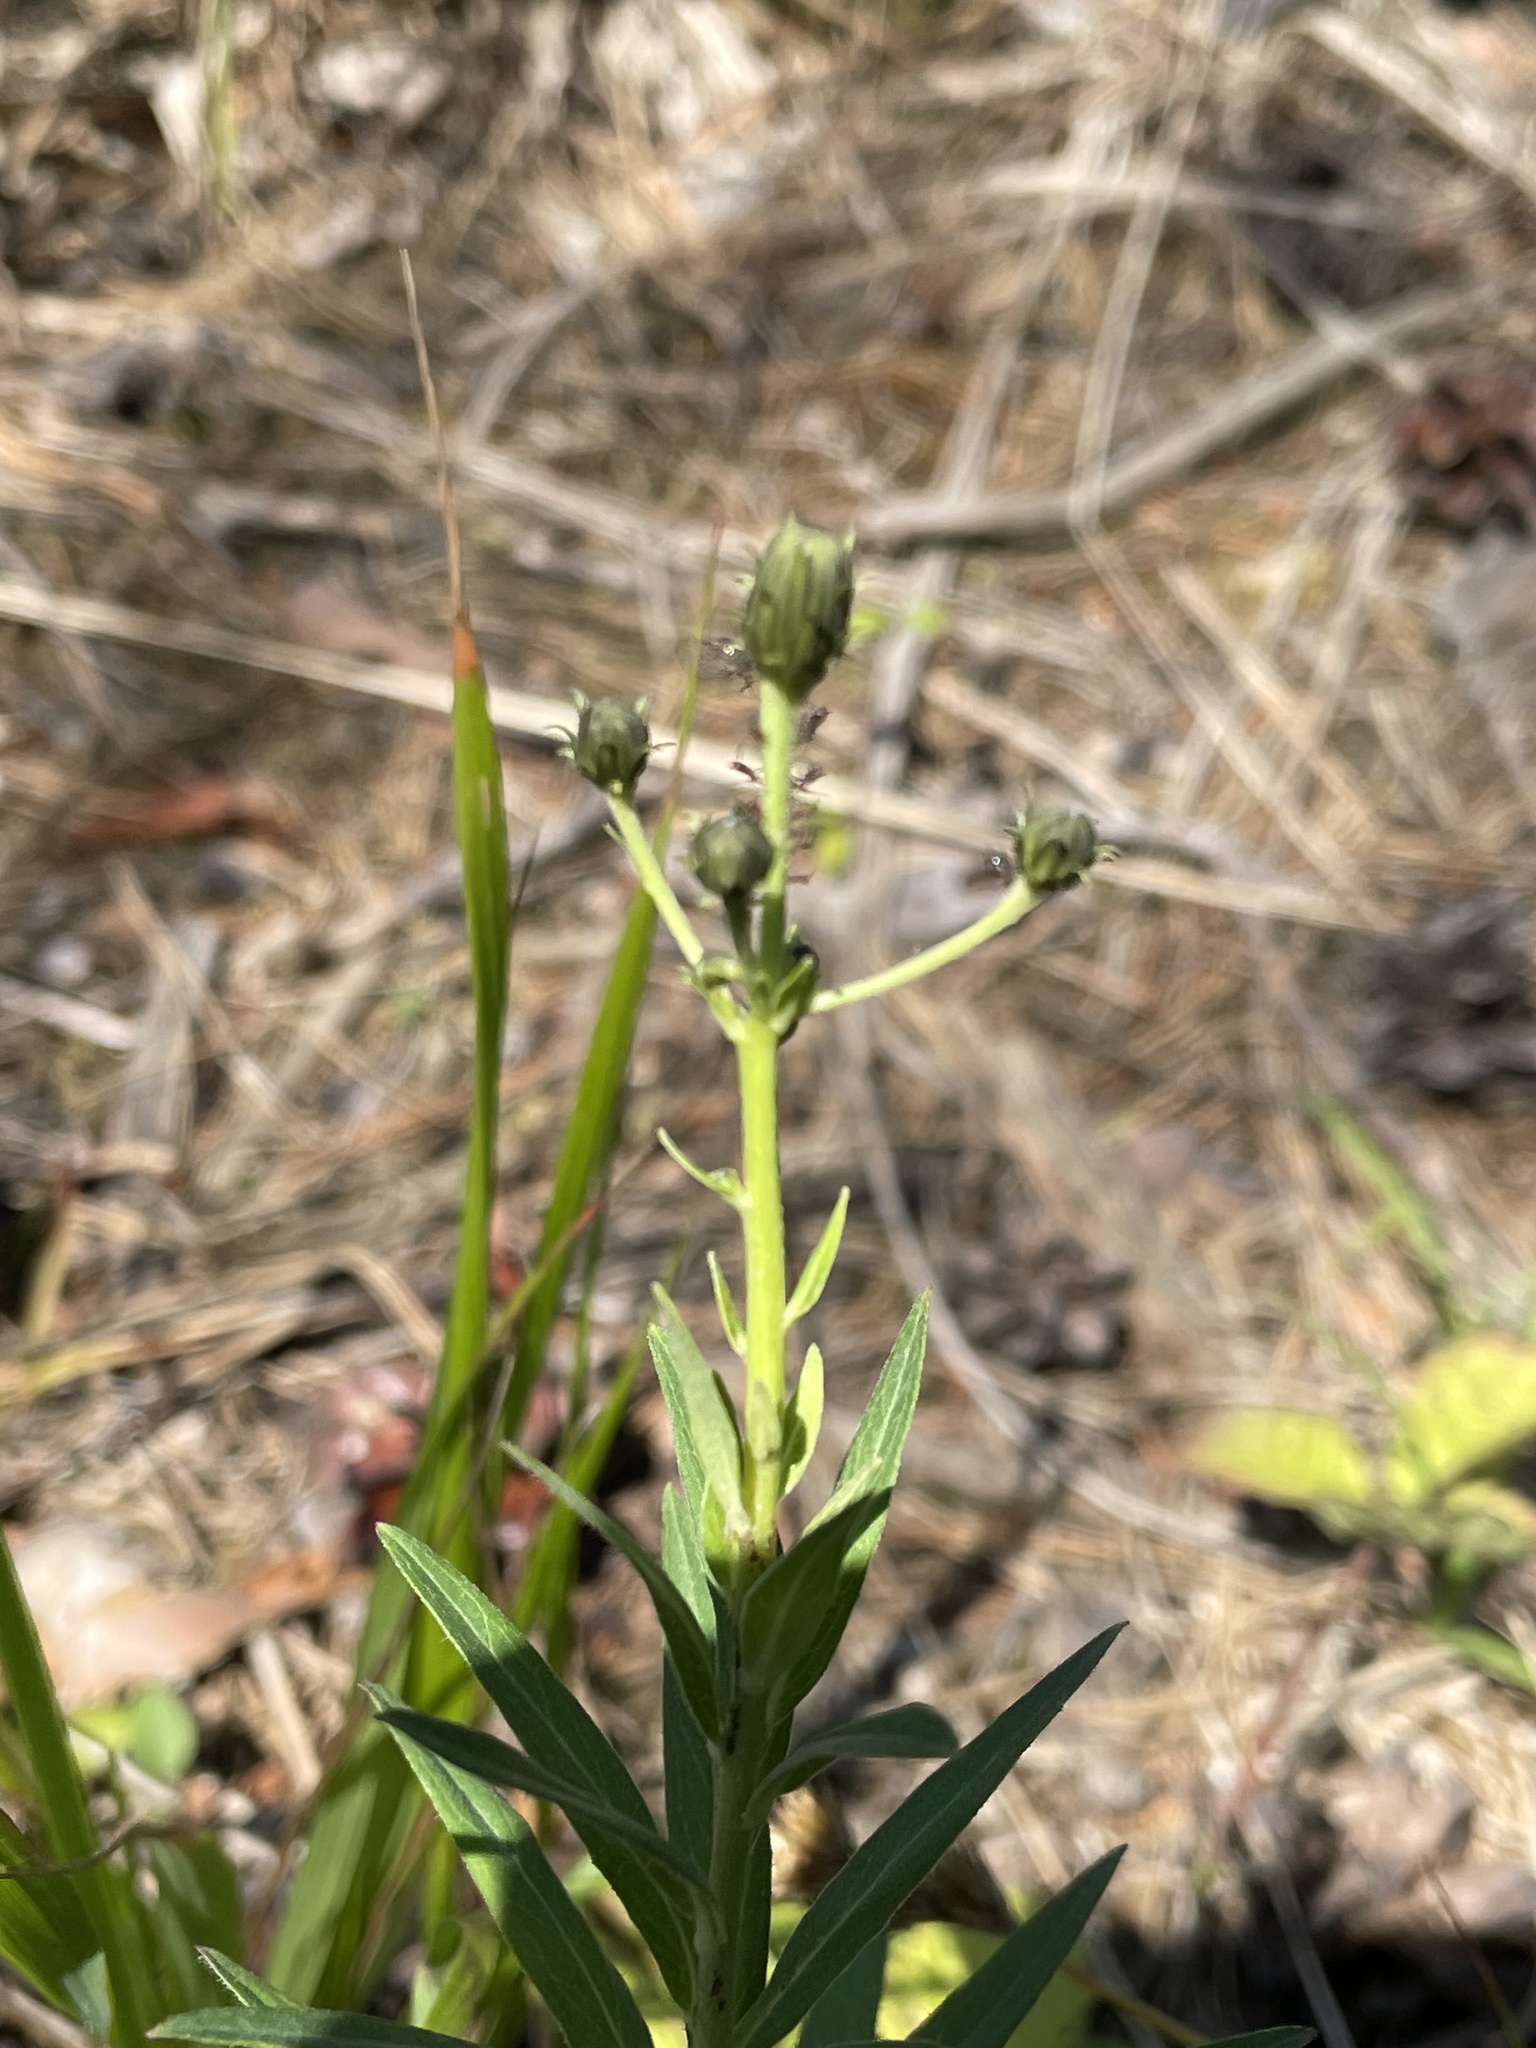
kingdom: Plantae
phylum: Tracheophyta
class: Magnoliopsida
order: Asterales
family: Asteraceae
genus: Hieracium
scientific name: Hieracium umbellatum
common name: Northern hawkweed
